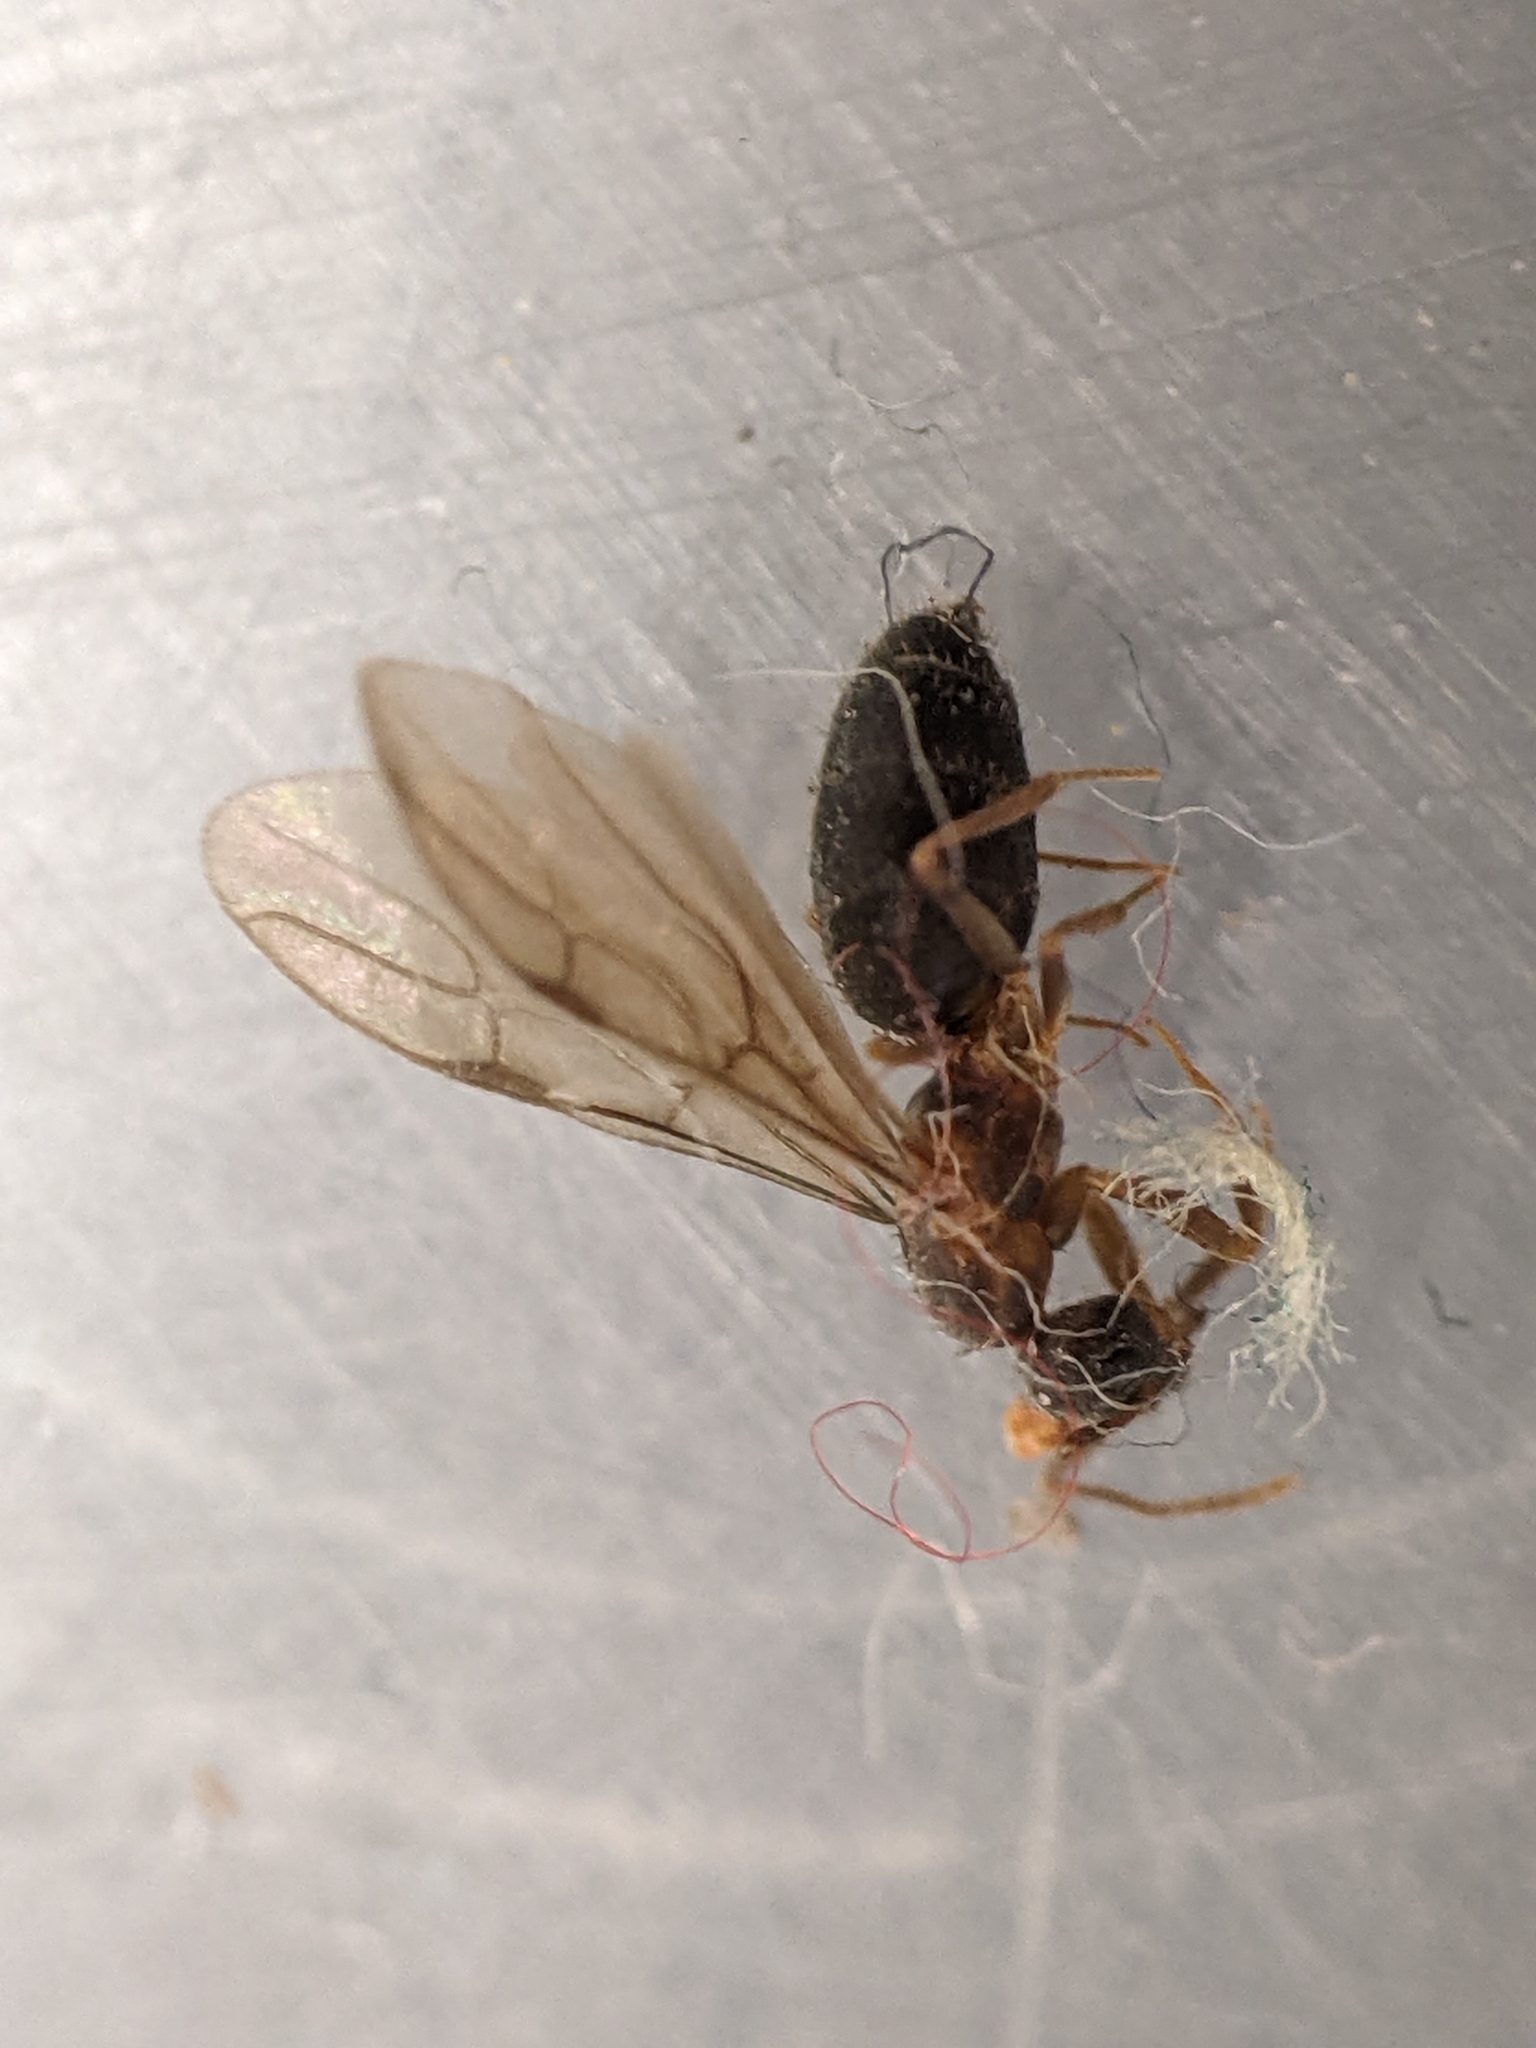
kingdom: Animalia
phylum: Arthropoda
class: Insecta
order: Hymenoptera
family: Formicidae
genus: Paratrechina
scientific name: Paratrechina flavipes
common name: Eastern asian formicine ant
